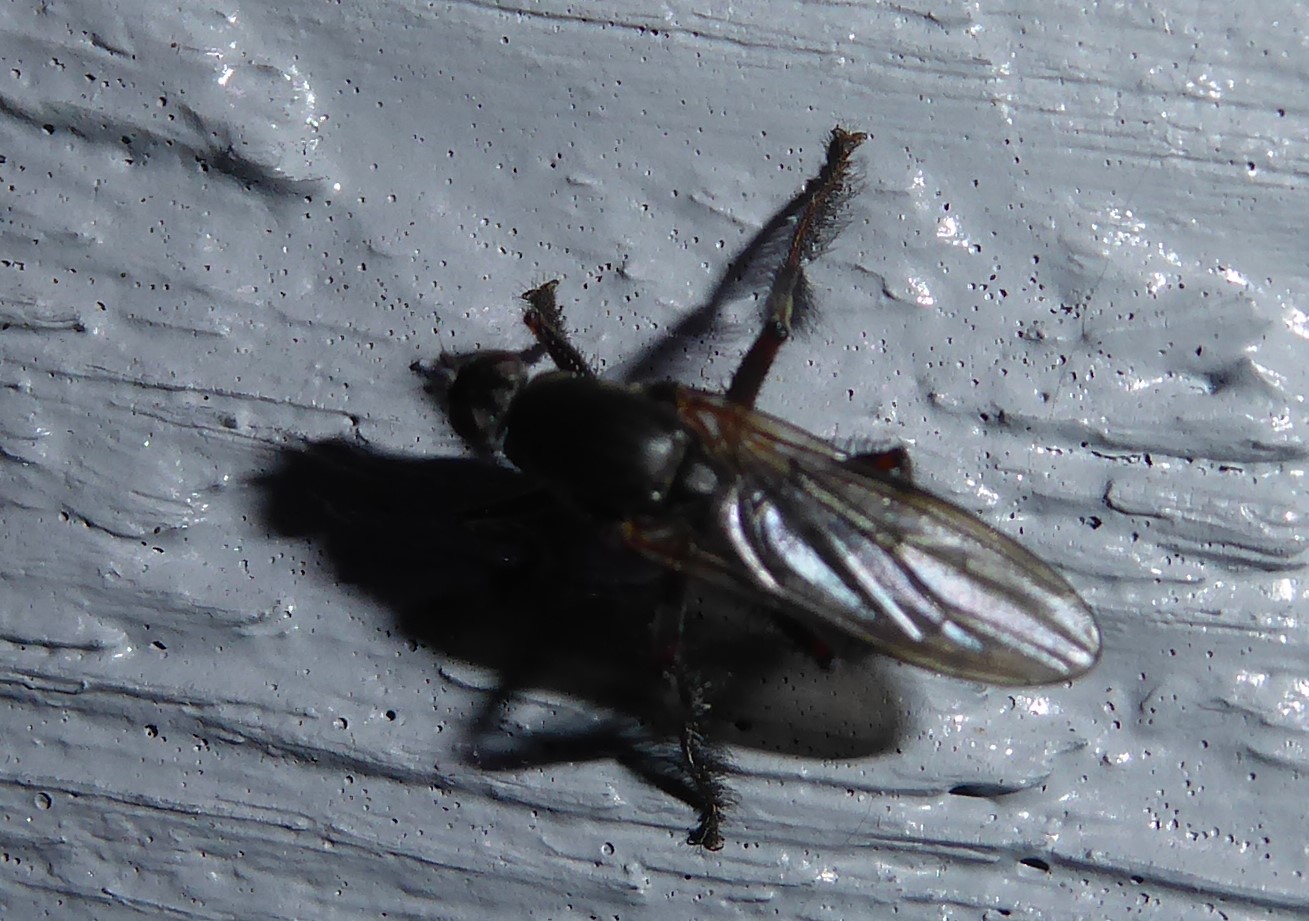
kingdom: Animalia
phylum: Arthropoda
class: Insecta
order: Diptera
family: Coelopidae
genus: Chaetocoelopa
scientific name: Chaetocoelopa littoralis
